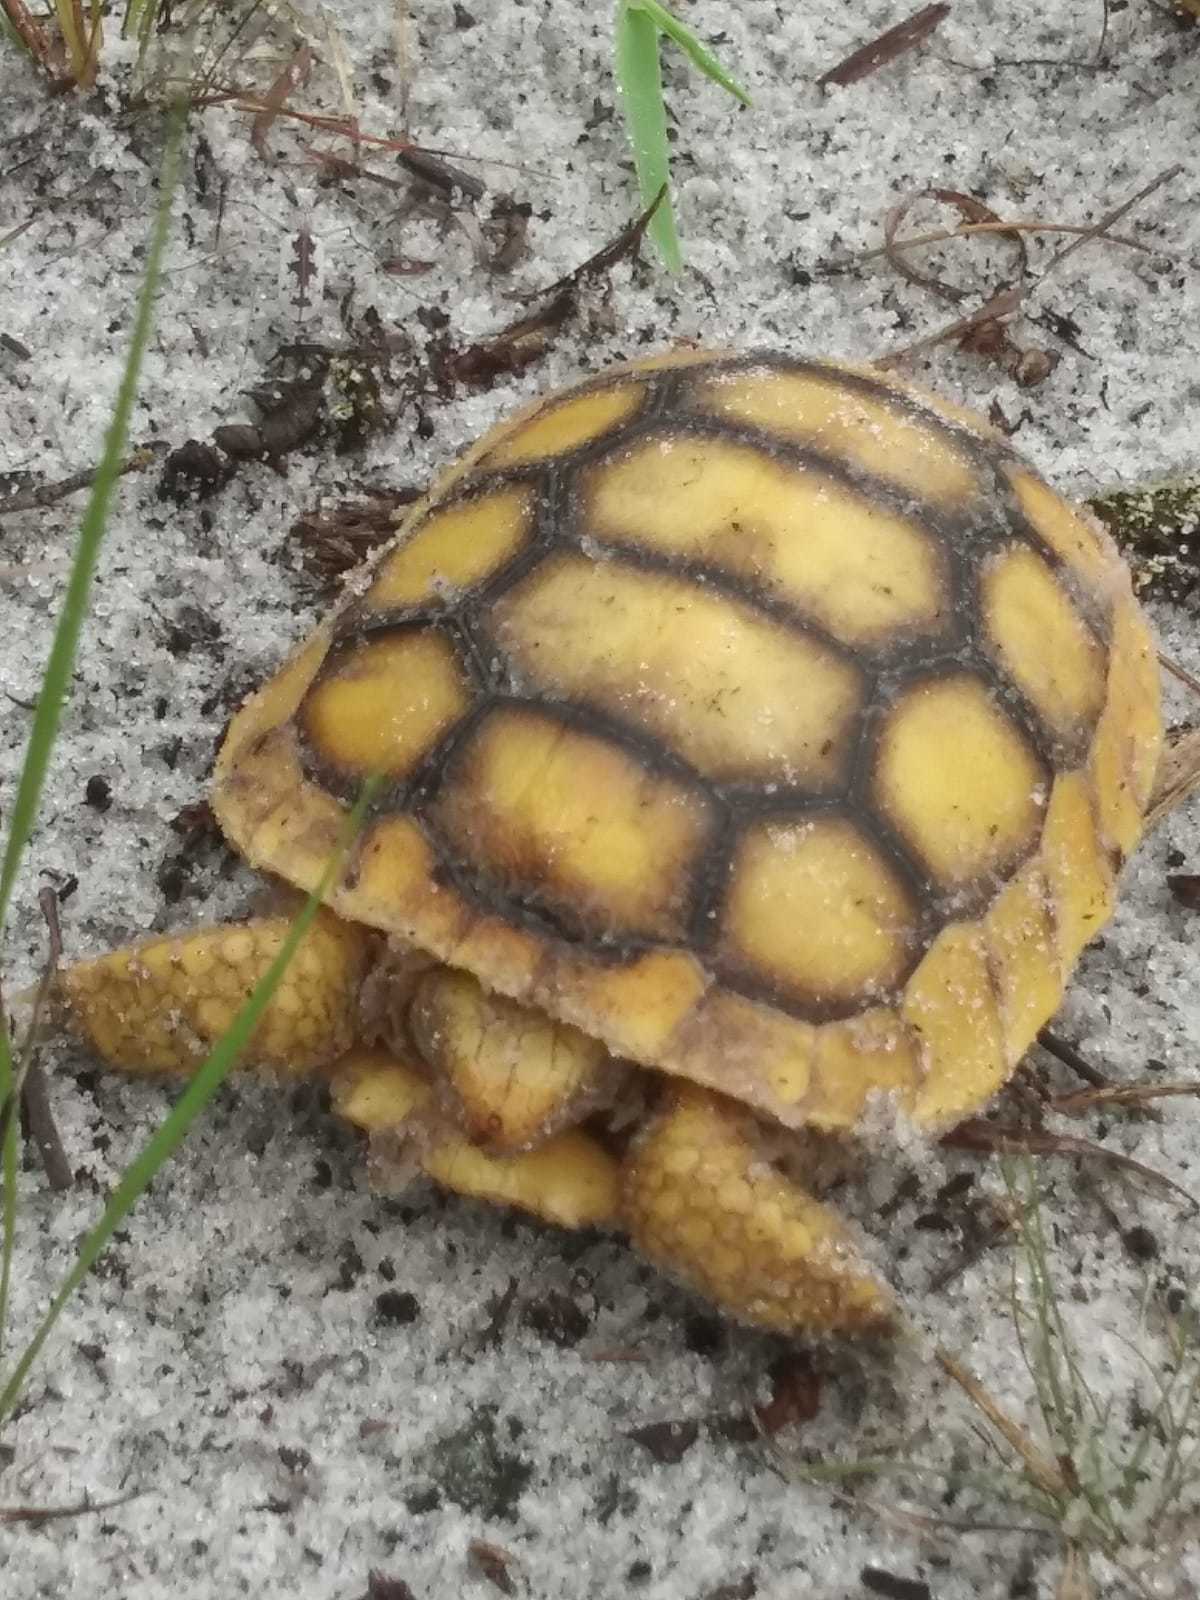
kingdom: Animalia
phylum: Chordata
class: Testudines
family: Testudinidae
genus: Gopherus
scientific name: Gopherus polyphemus
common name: Florida gopher tortoise
